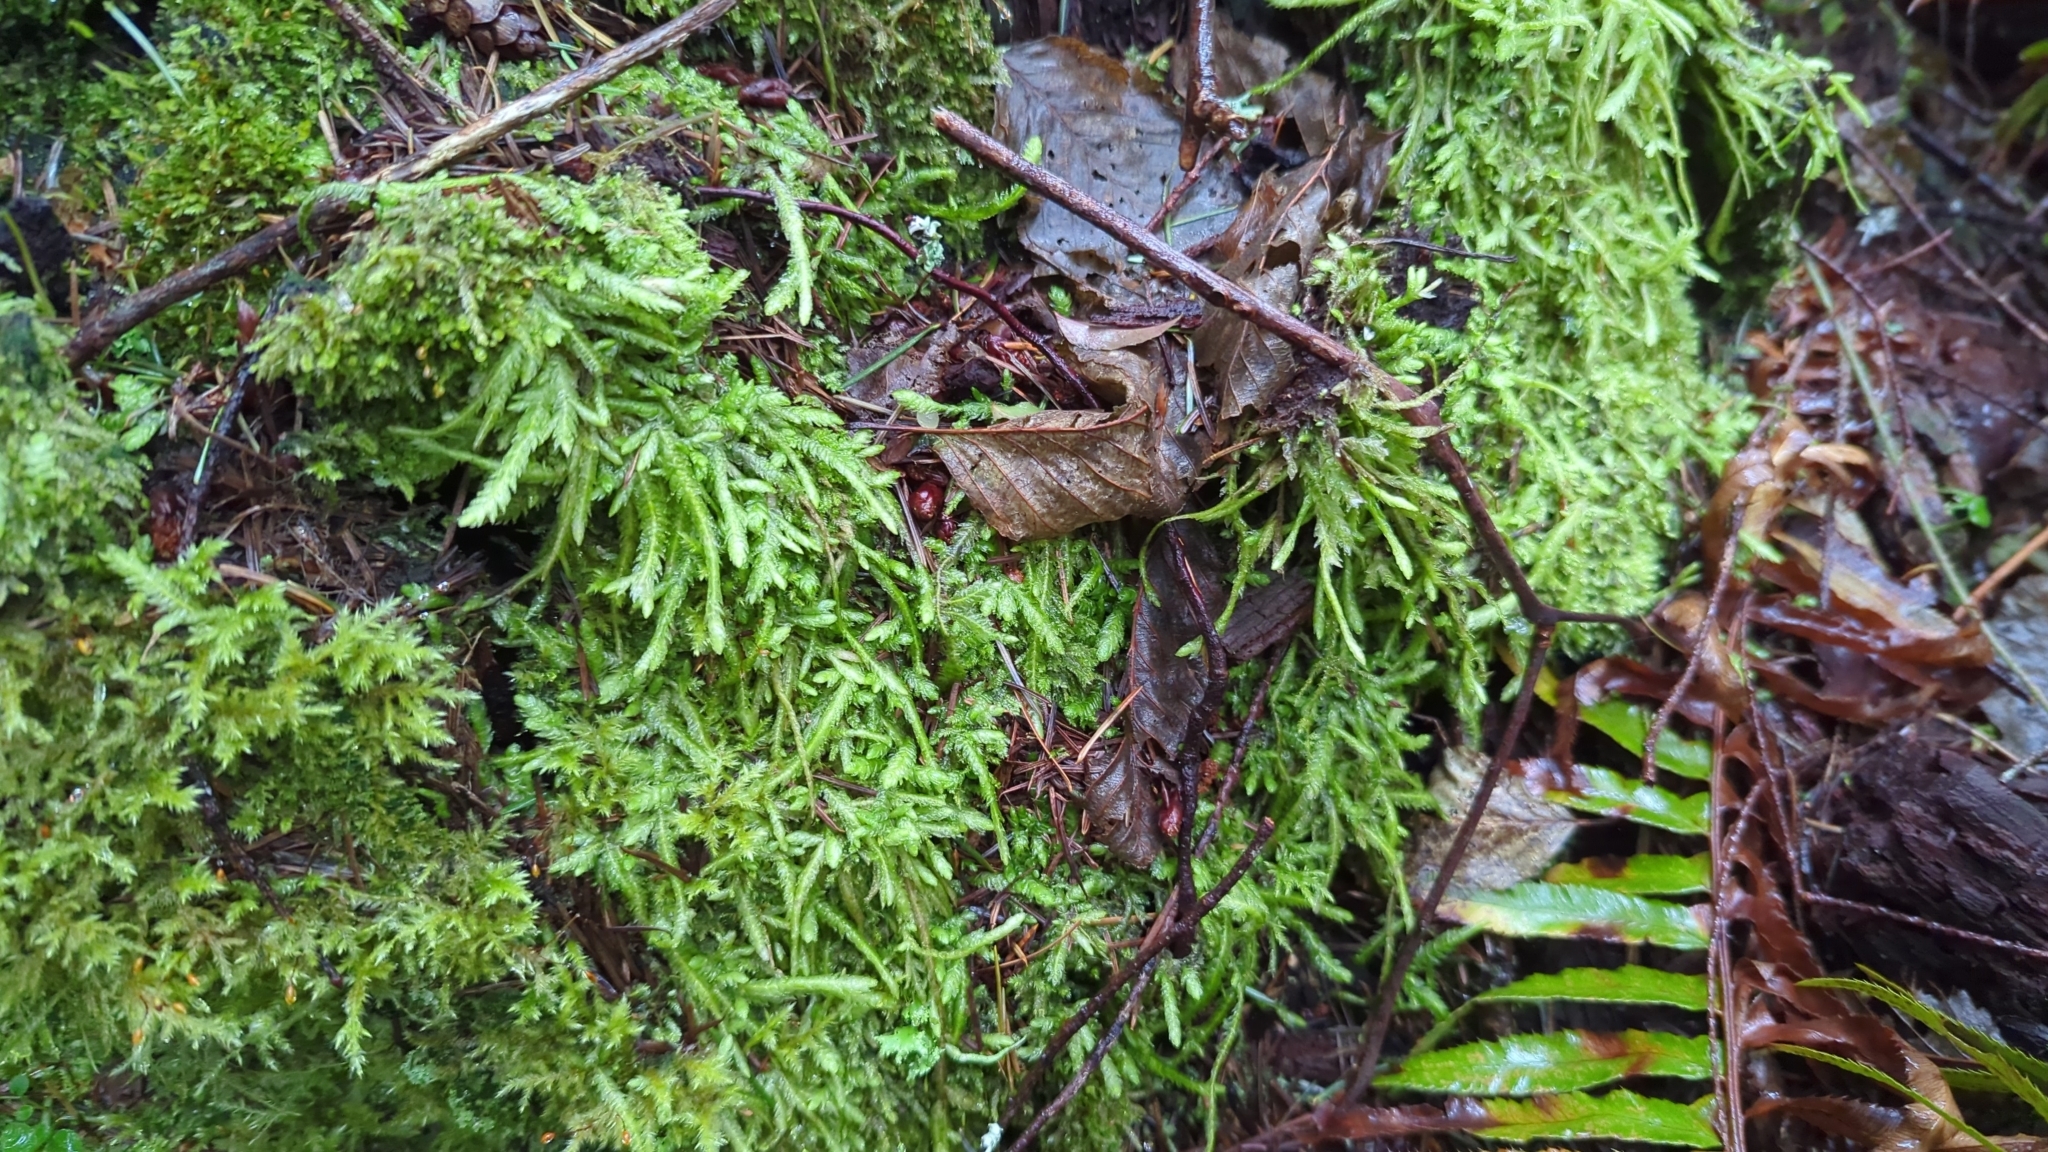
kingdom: Plantae
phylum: Bryophyta
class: Bryopsida
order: Hypnales
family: Plagiotheciaceae
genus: Plagiothecium
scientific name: Plagiothecium undulatum
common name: Waved silk-moss
